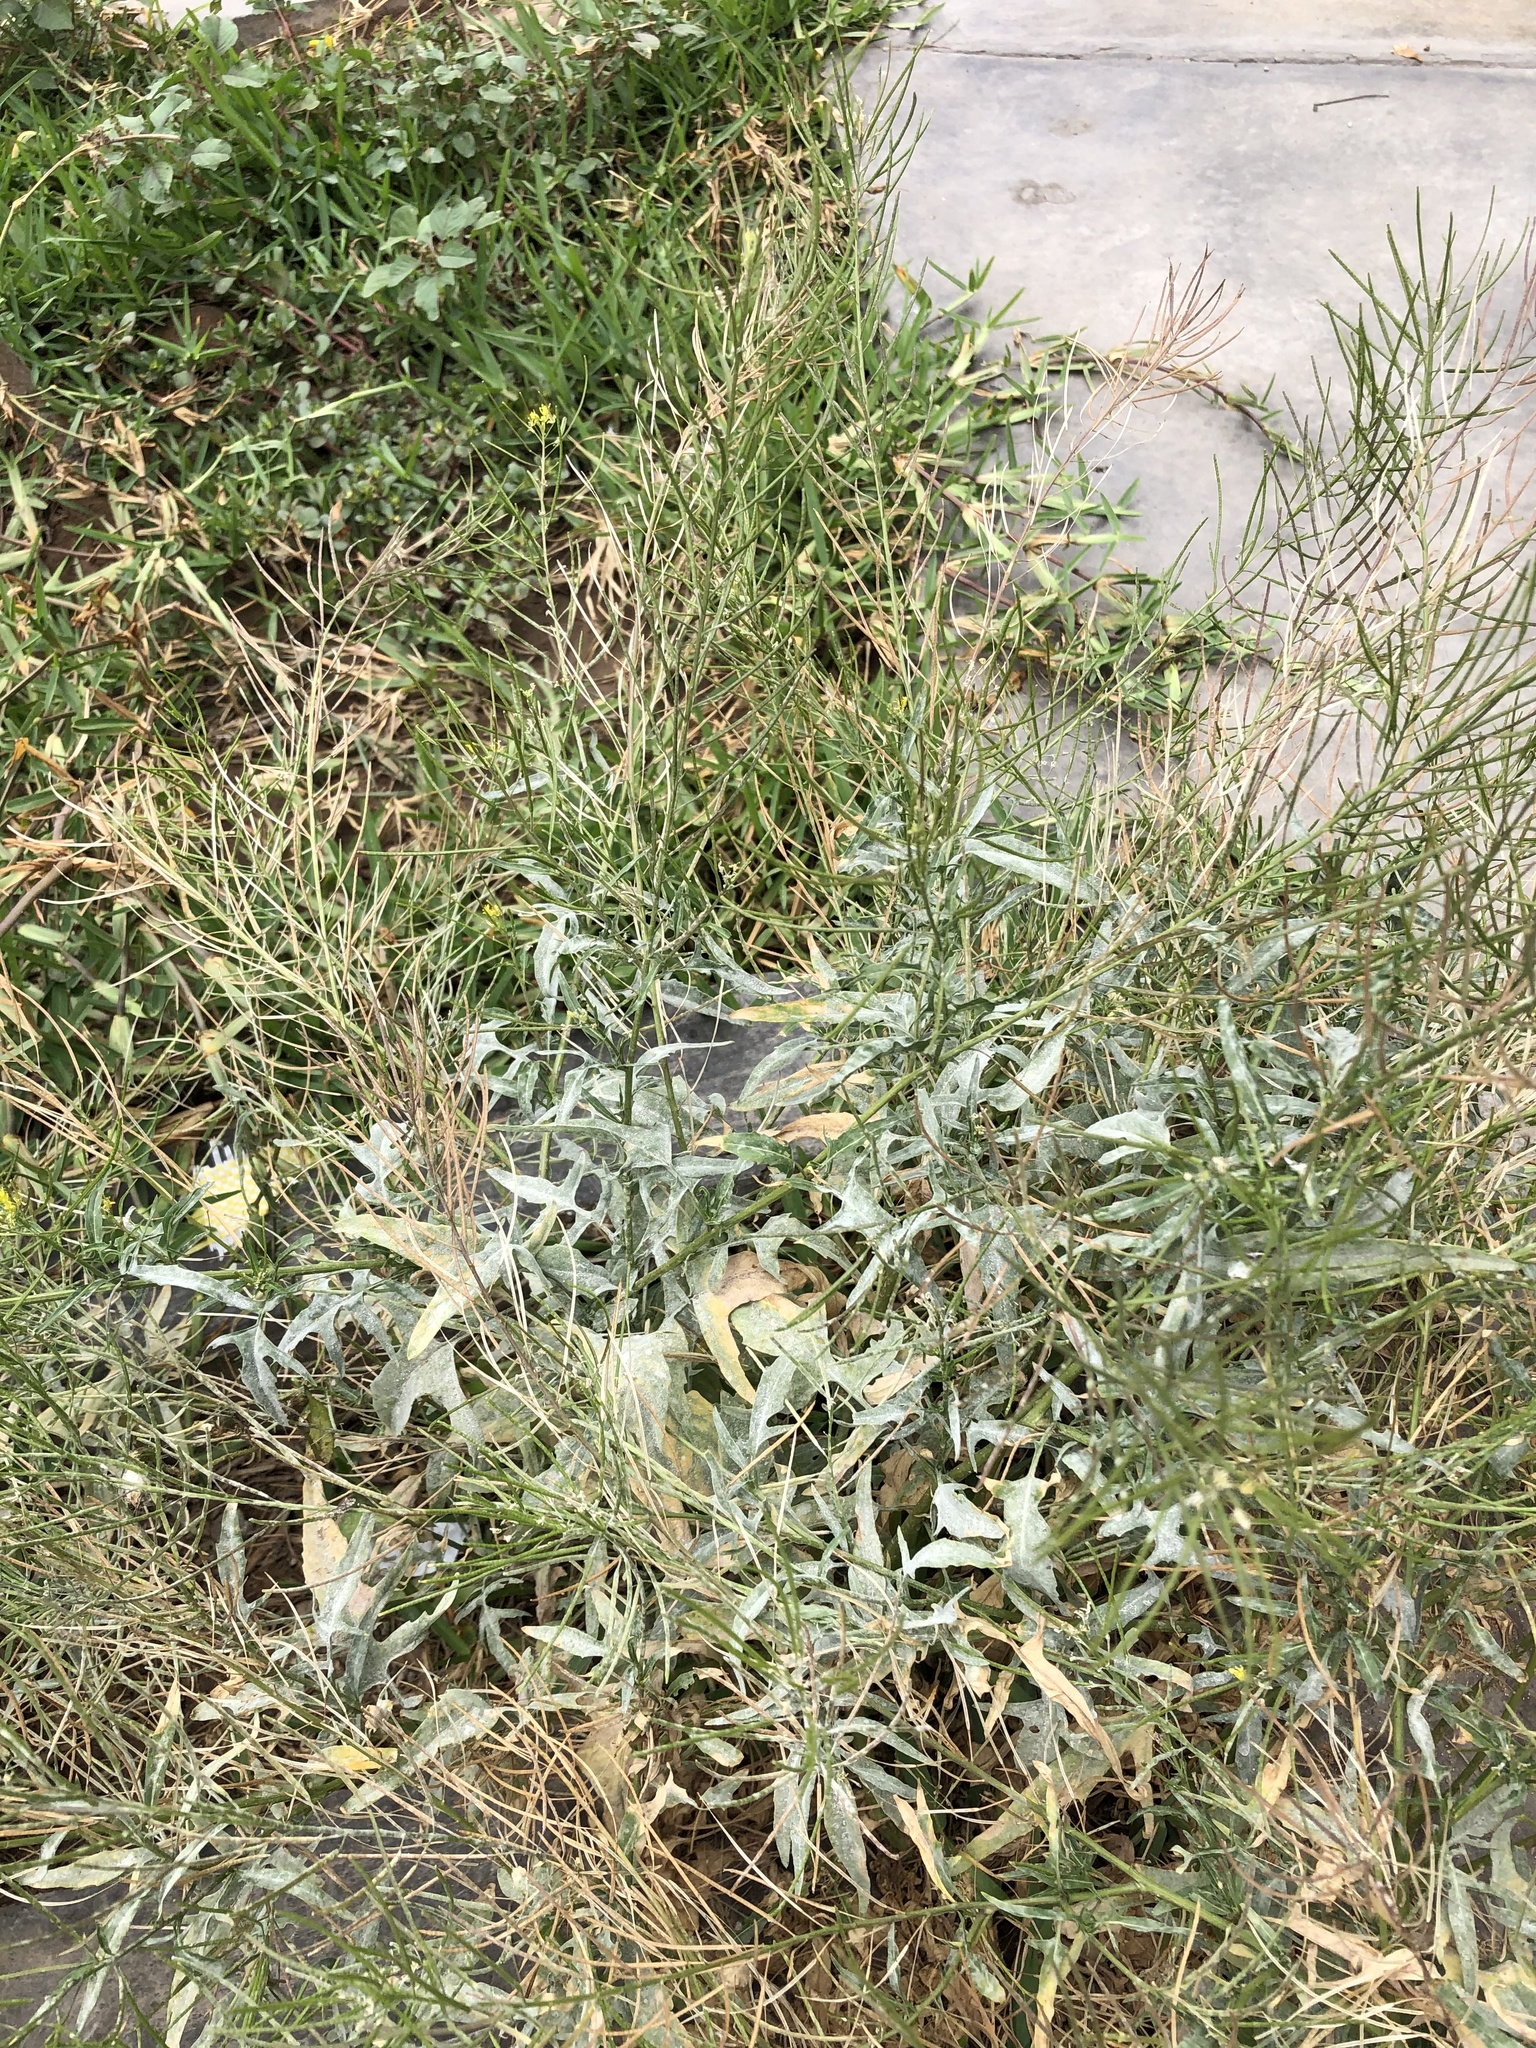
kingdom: Plantae
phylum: Tracheophyta
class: Magnoliopsida
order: Brassicales
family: Brassicaceae
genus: Sisymbrium
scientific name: Sisymbrium irio
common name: London rocket
